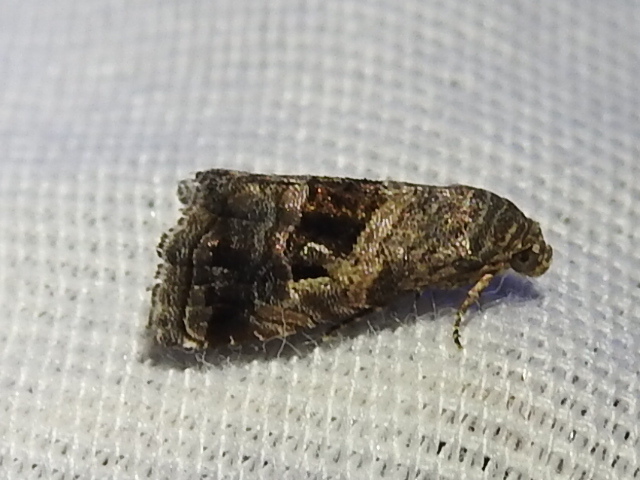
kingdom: Animalia
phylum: Arthropoda
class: Insecta
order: Lepidoptera
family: Noctuidae
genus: Tripudia
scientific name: Tripudia quadrifera
